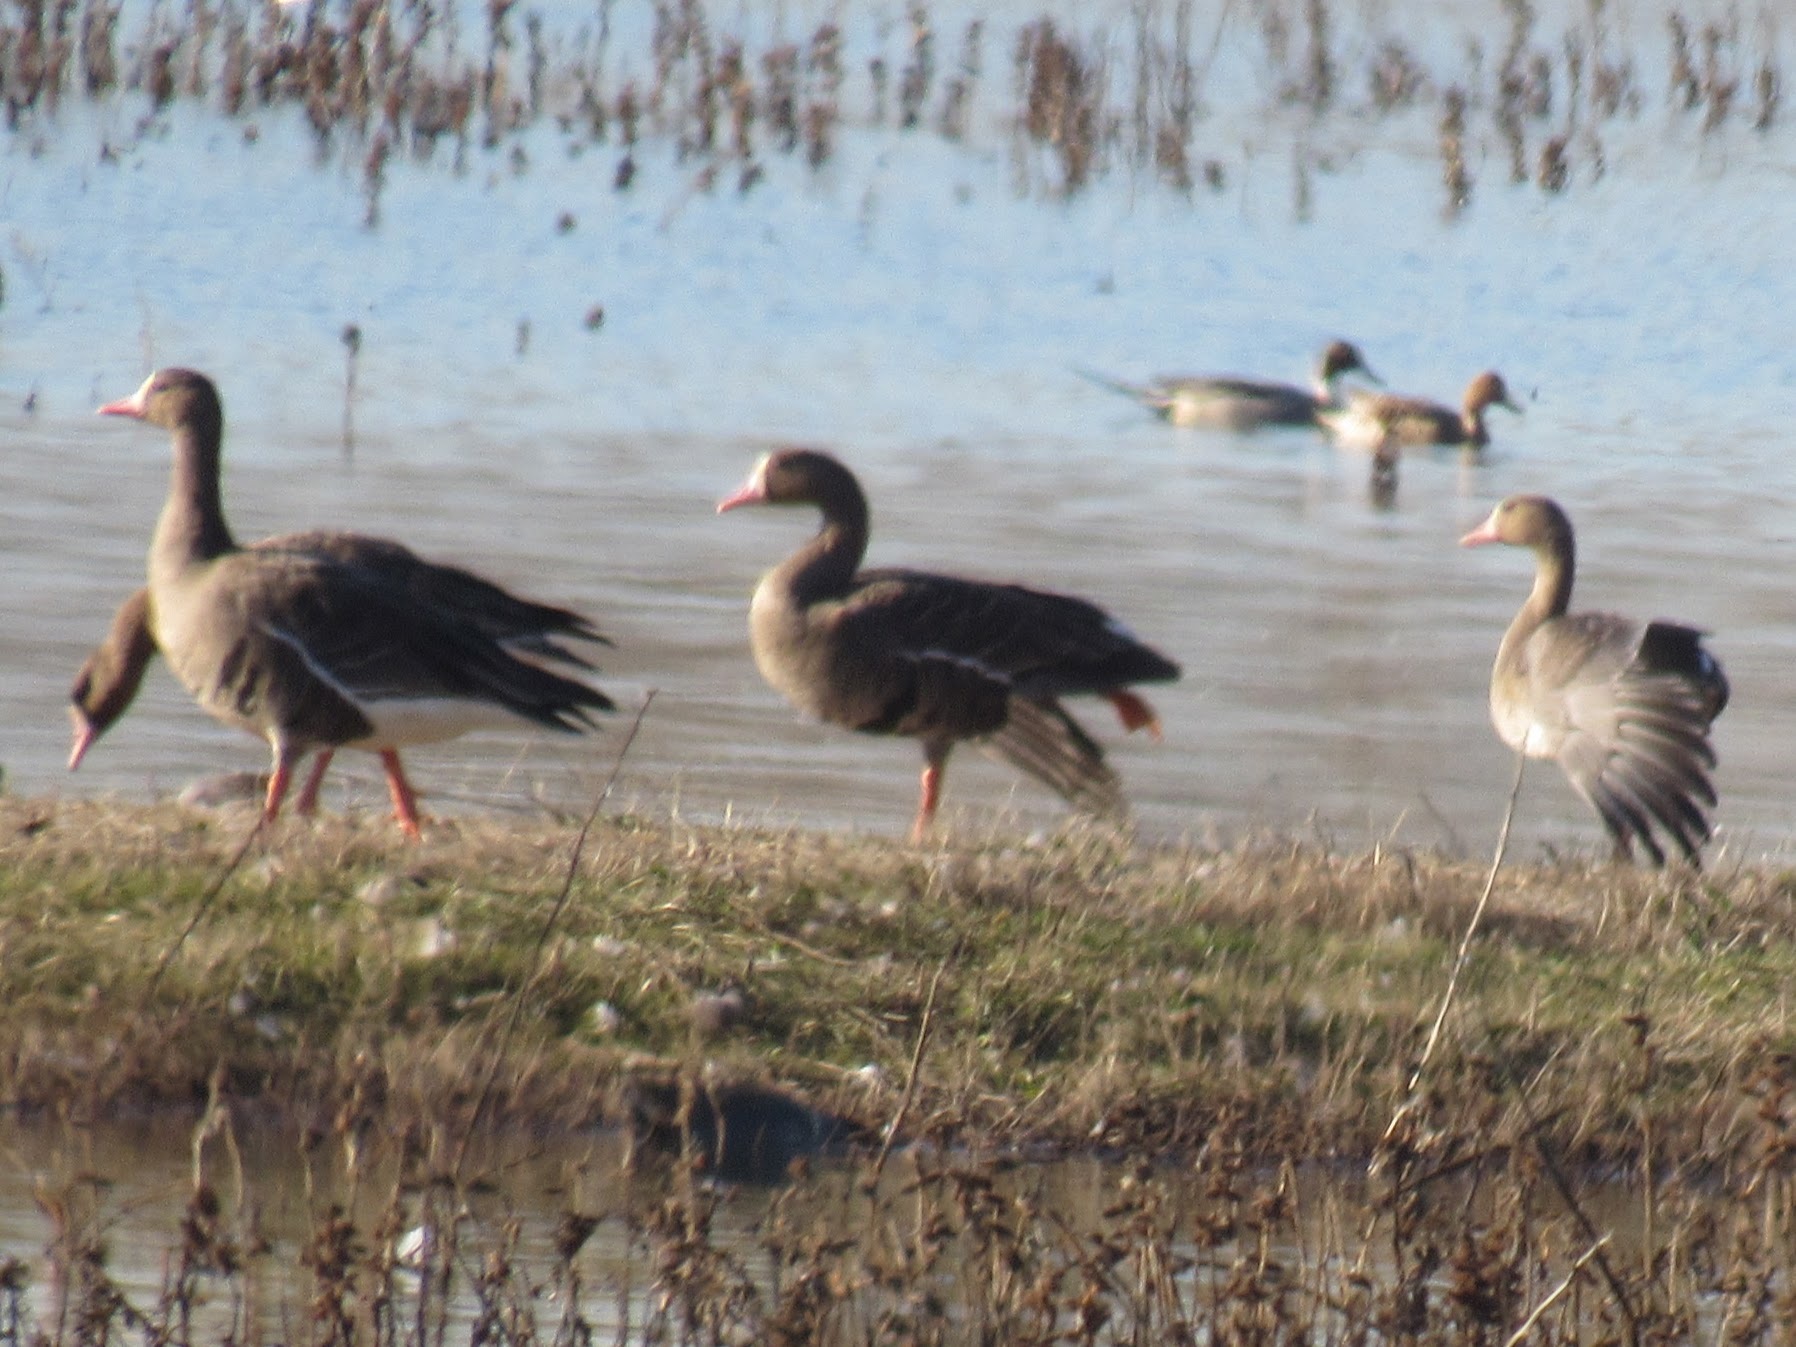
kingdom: Animalia
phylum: Chordata
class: Aves
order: Anseriformes
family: Anatidae
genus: Anser
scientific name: Anser albifrons
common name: Greater white-fronted goose
